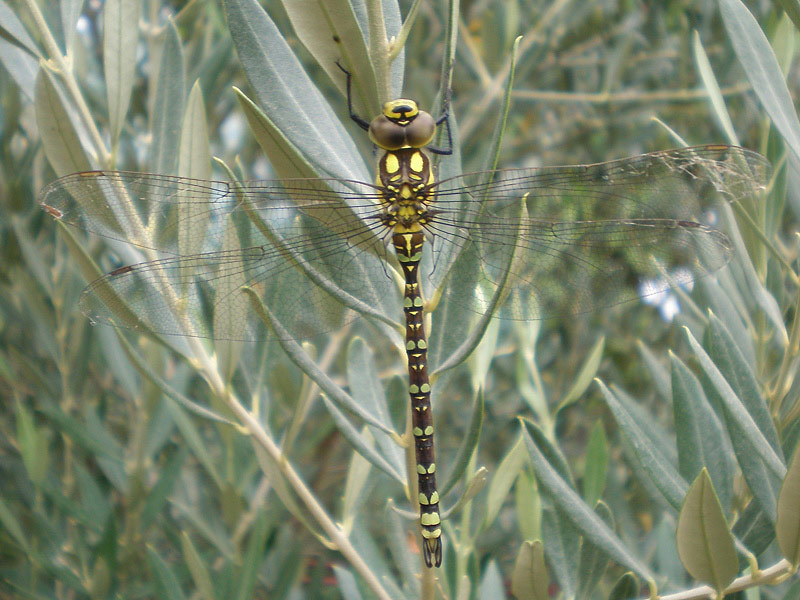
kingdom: Animalia
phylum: Arthropoda
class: Insecta
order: Odonata
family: Aeshnidae
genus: Aeshna
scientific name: Aeshna cyanea
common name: Southern hawker
